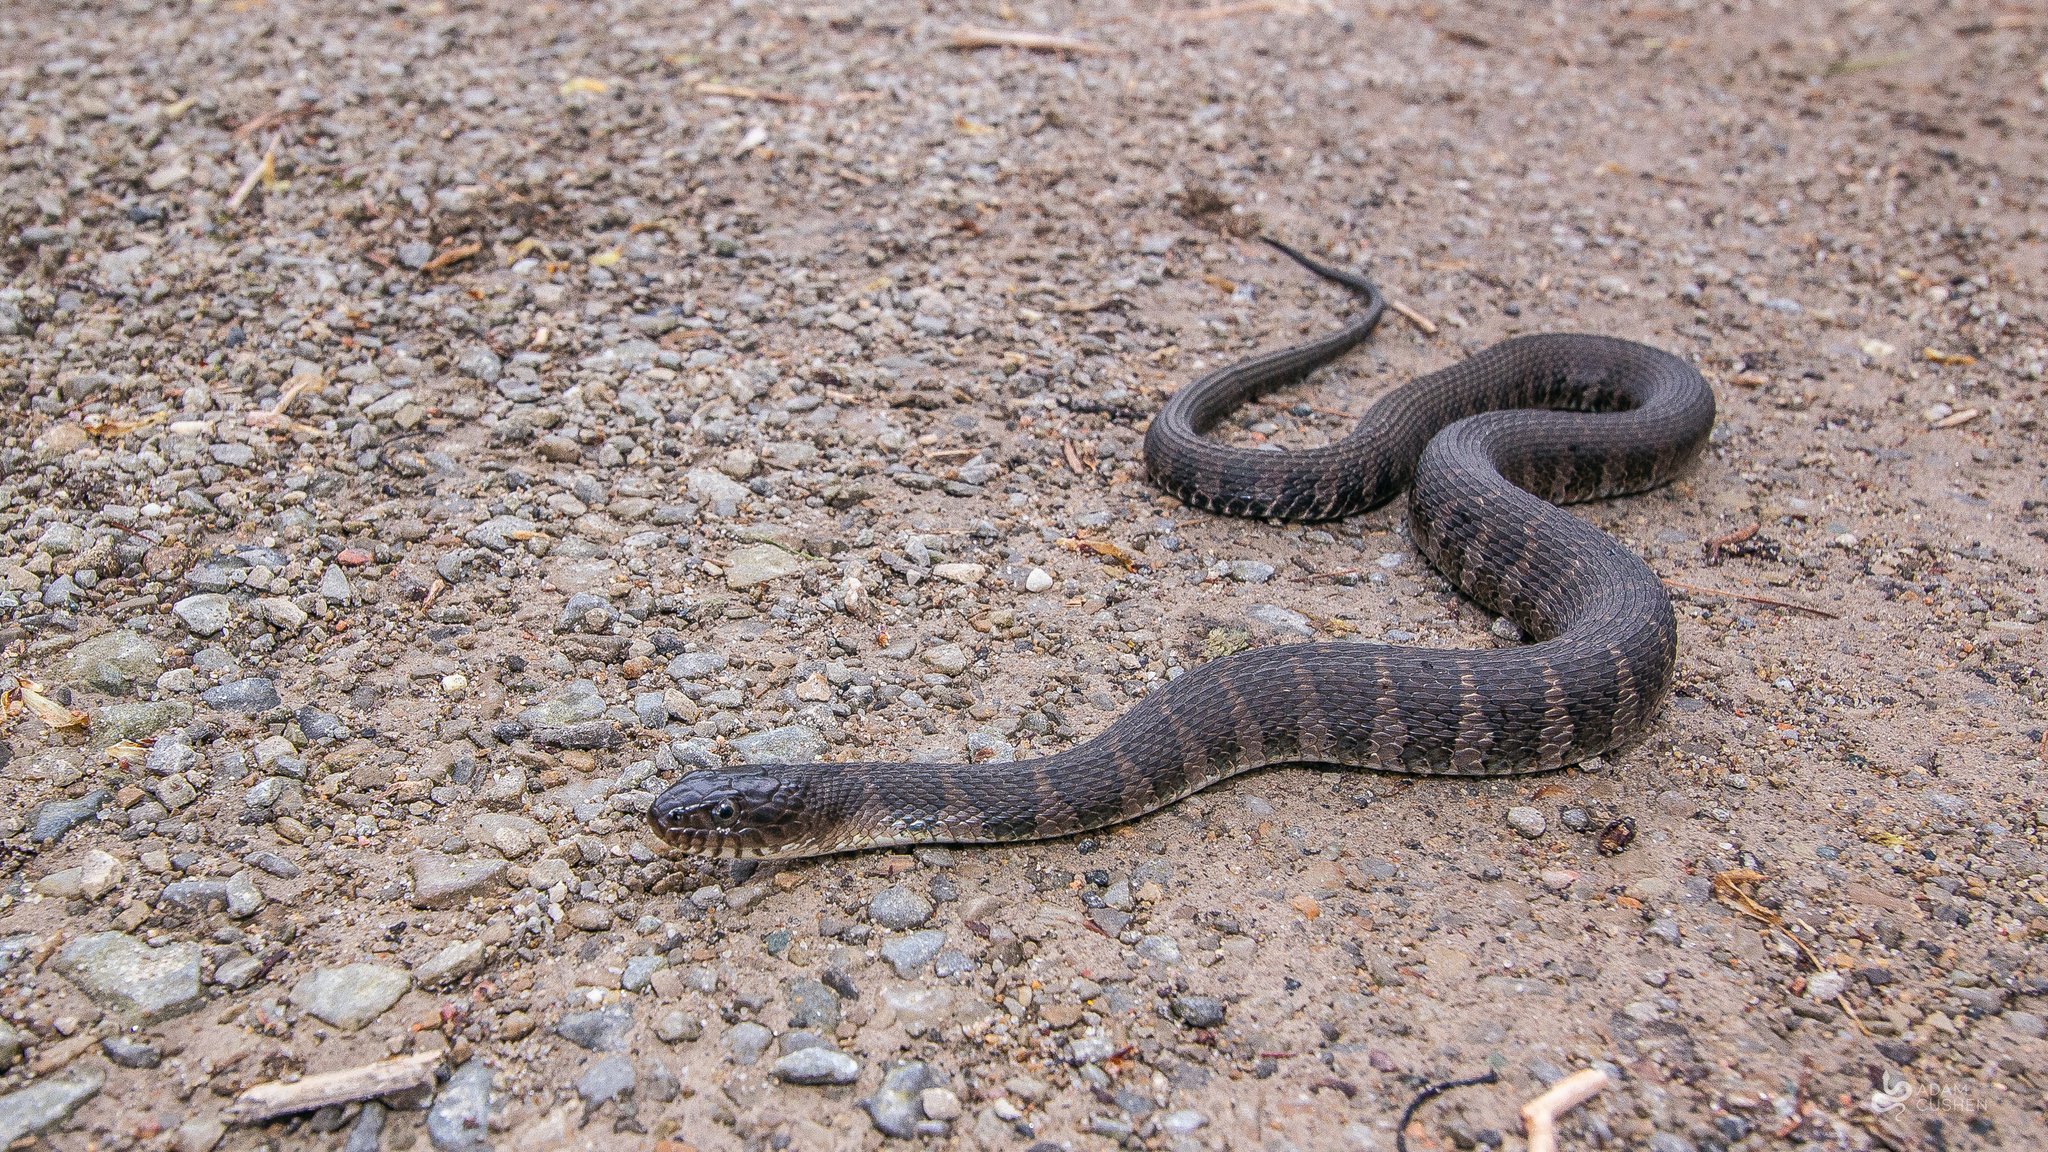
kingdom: Animalia
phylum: Chordata
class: Squamata
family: Colubridae
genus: Nerodia
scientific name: Nerodia sipedon
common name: Northern water snake
